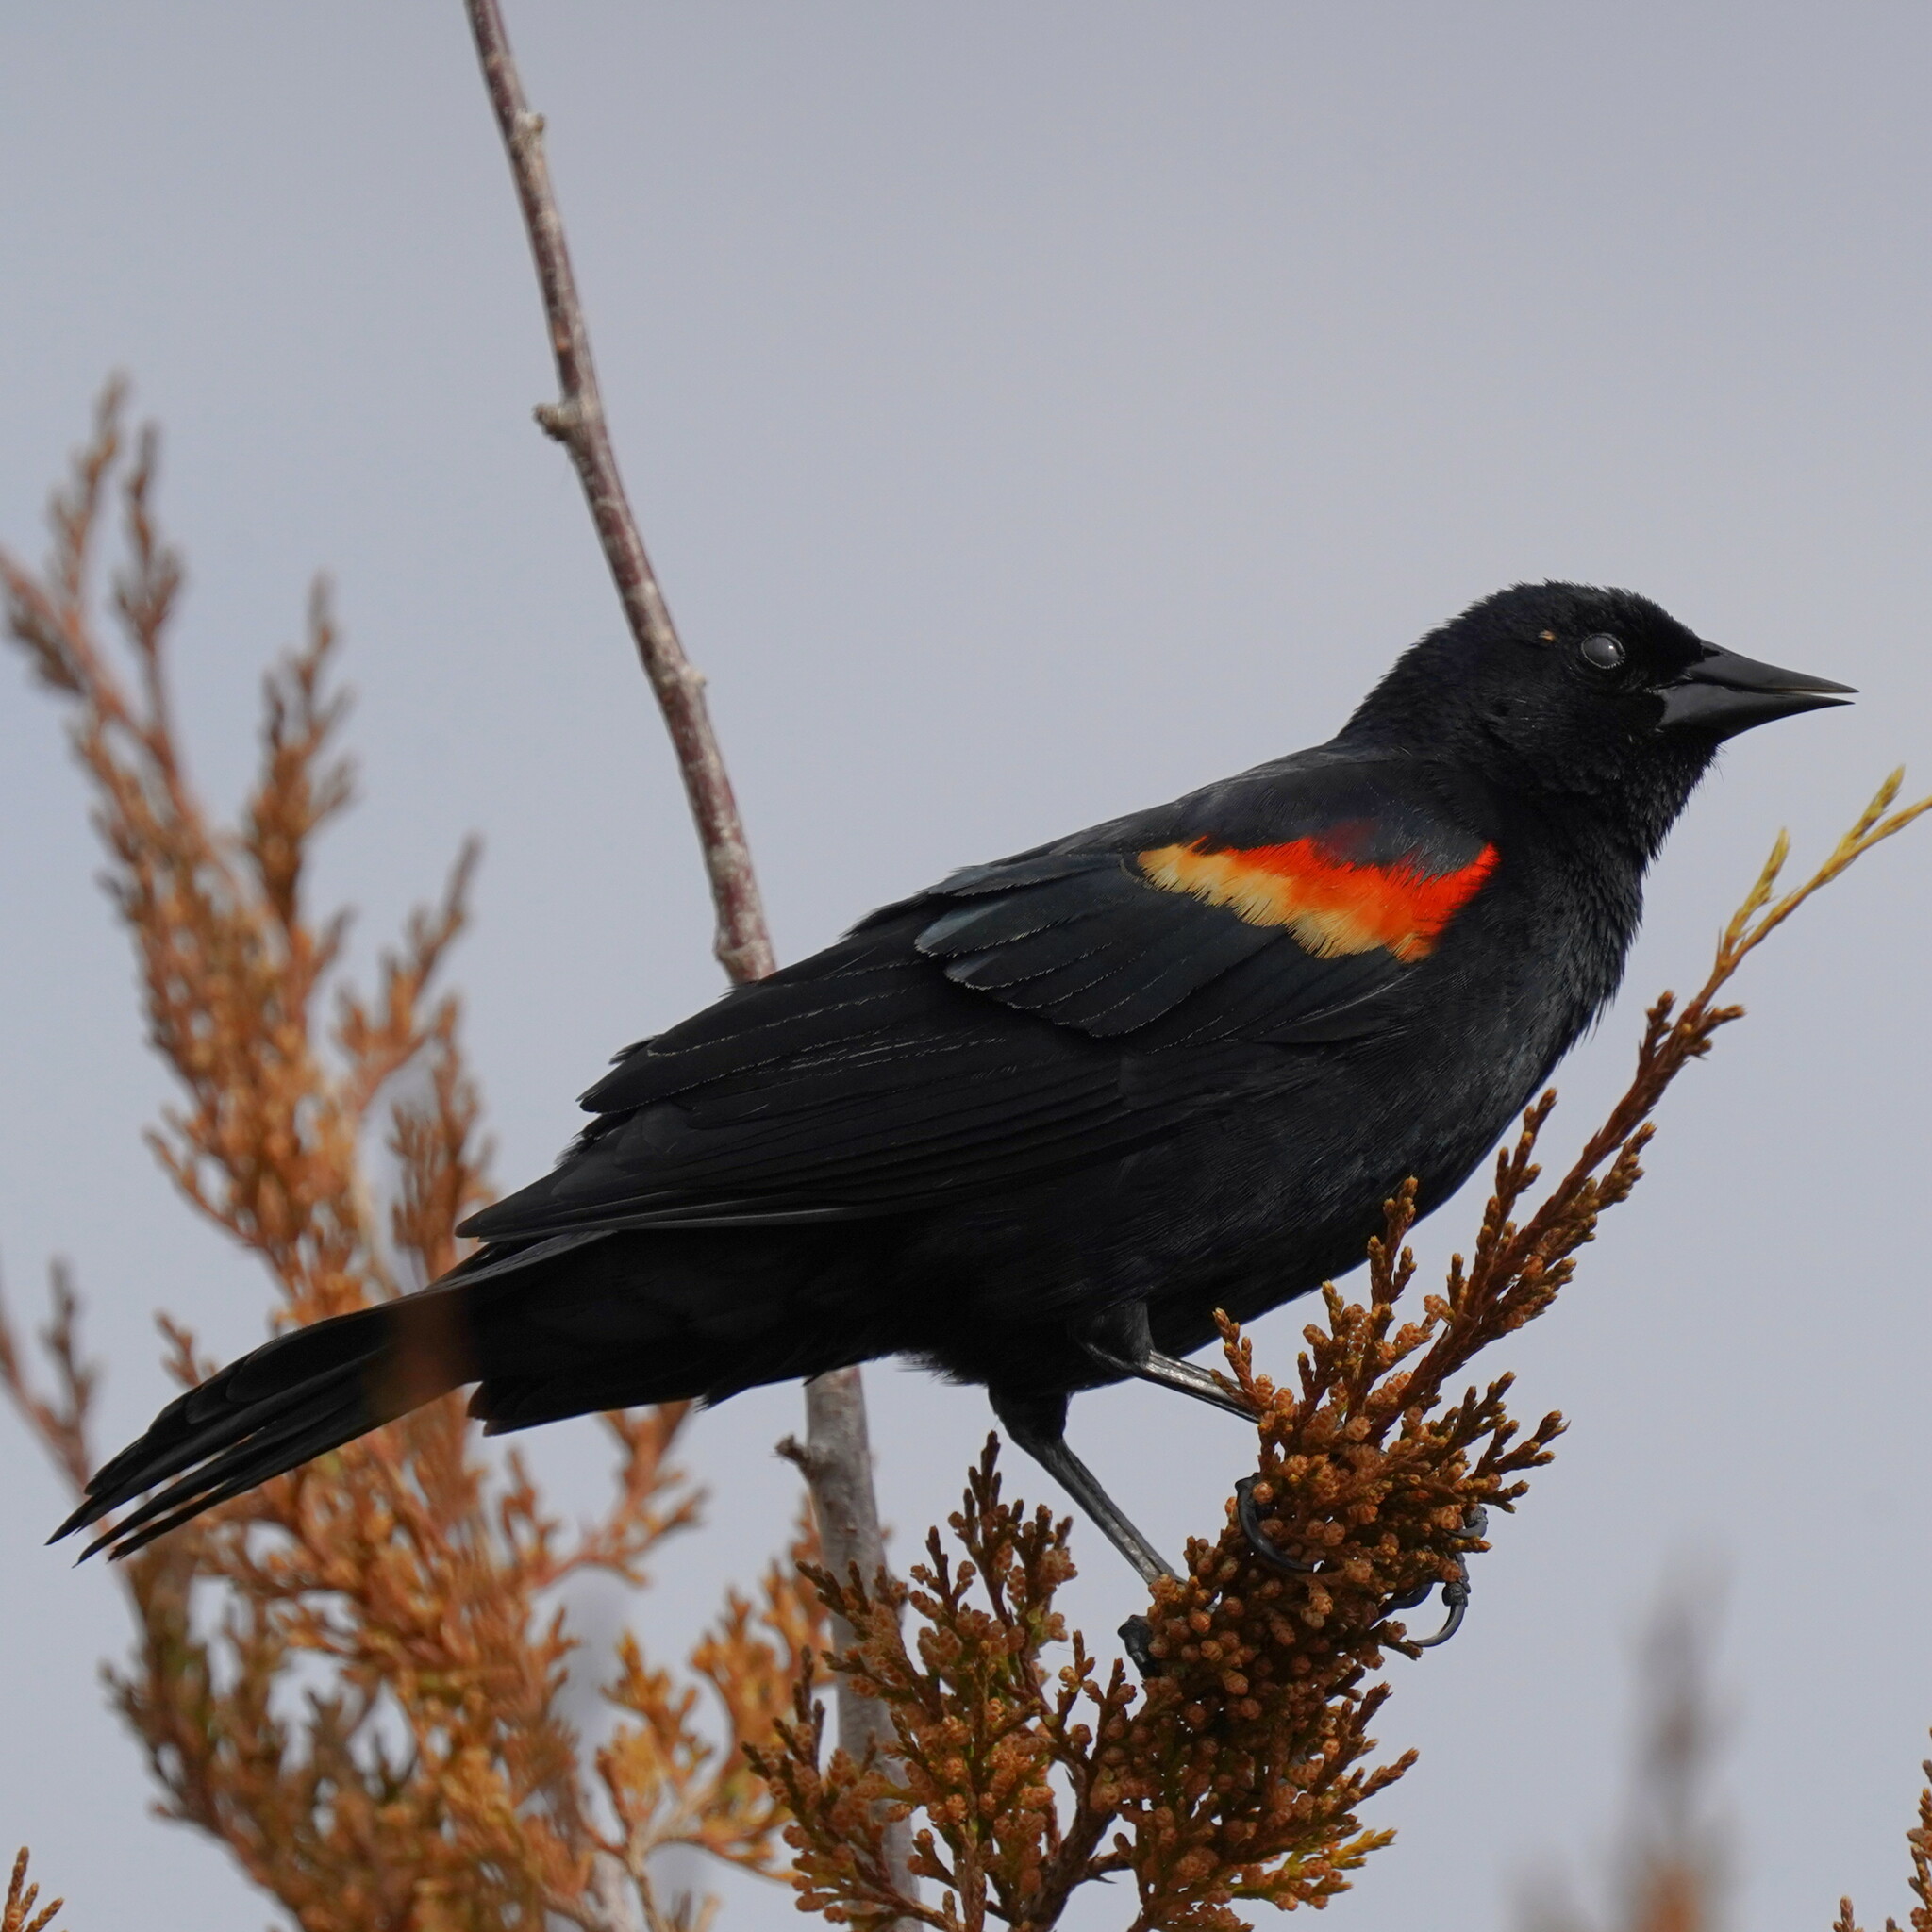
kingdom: Animalia
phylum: Chordata
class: Aves
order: Passeriformes
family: Icteridae
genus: Agelaius
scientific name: Agelaius phoeniceus
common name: Red-winged blackbird
